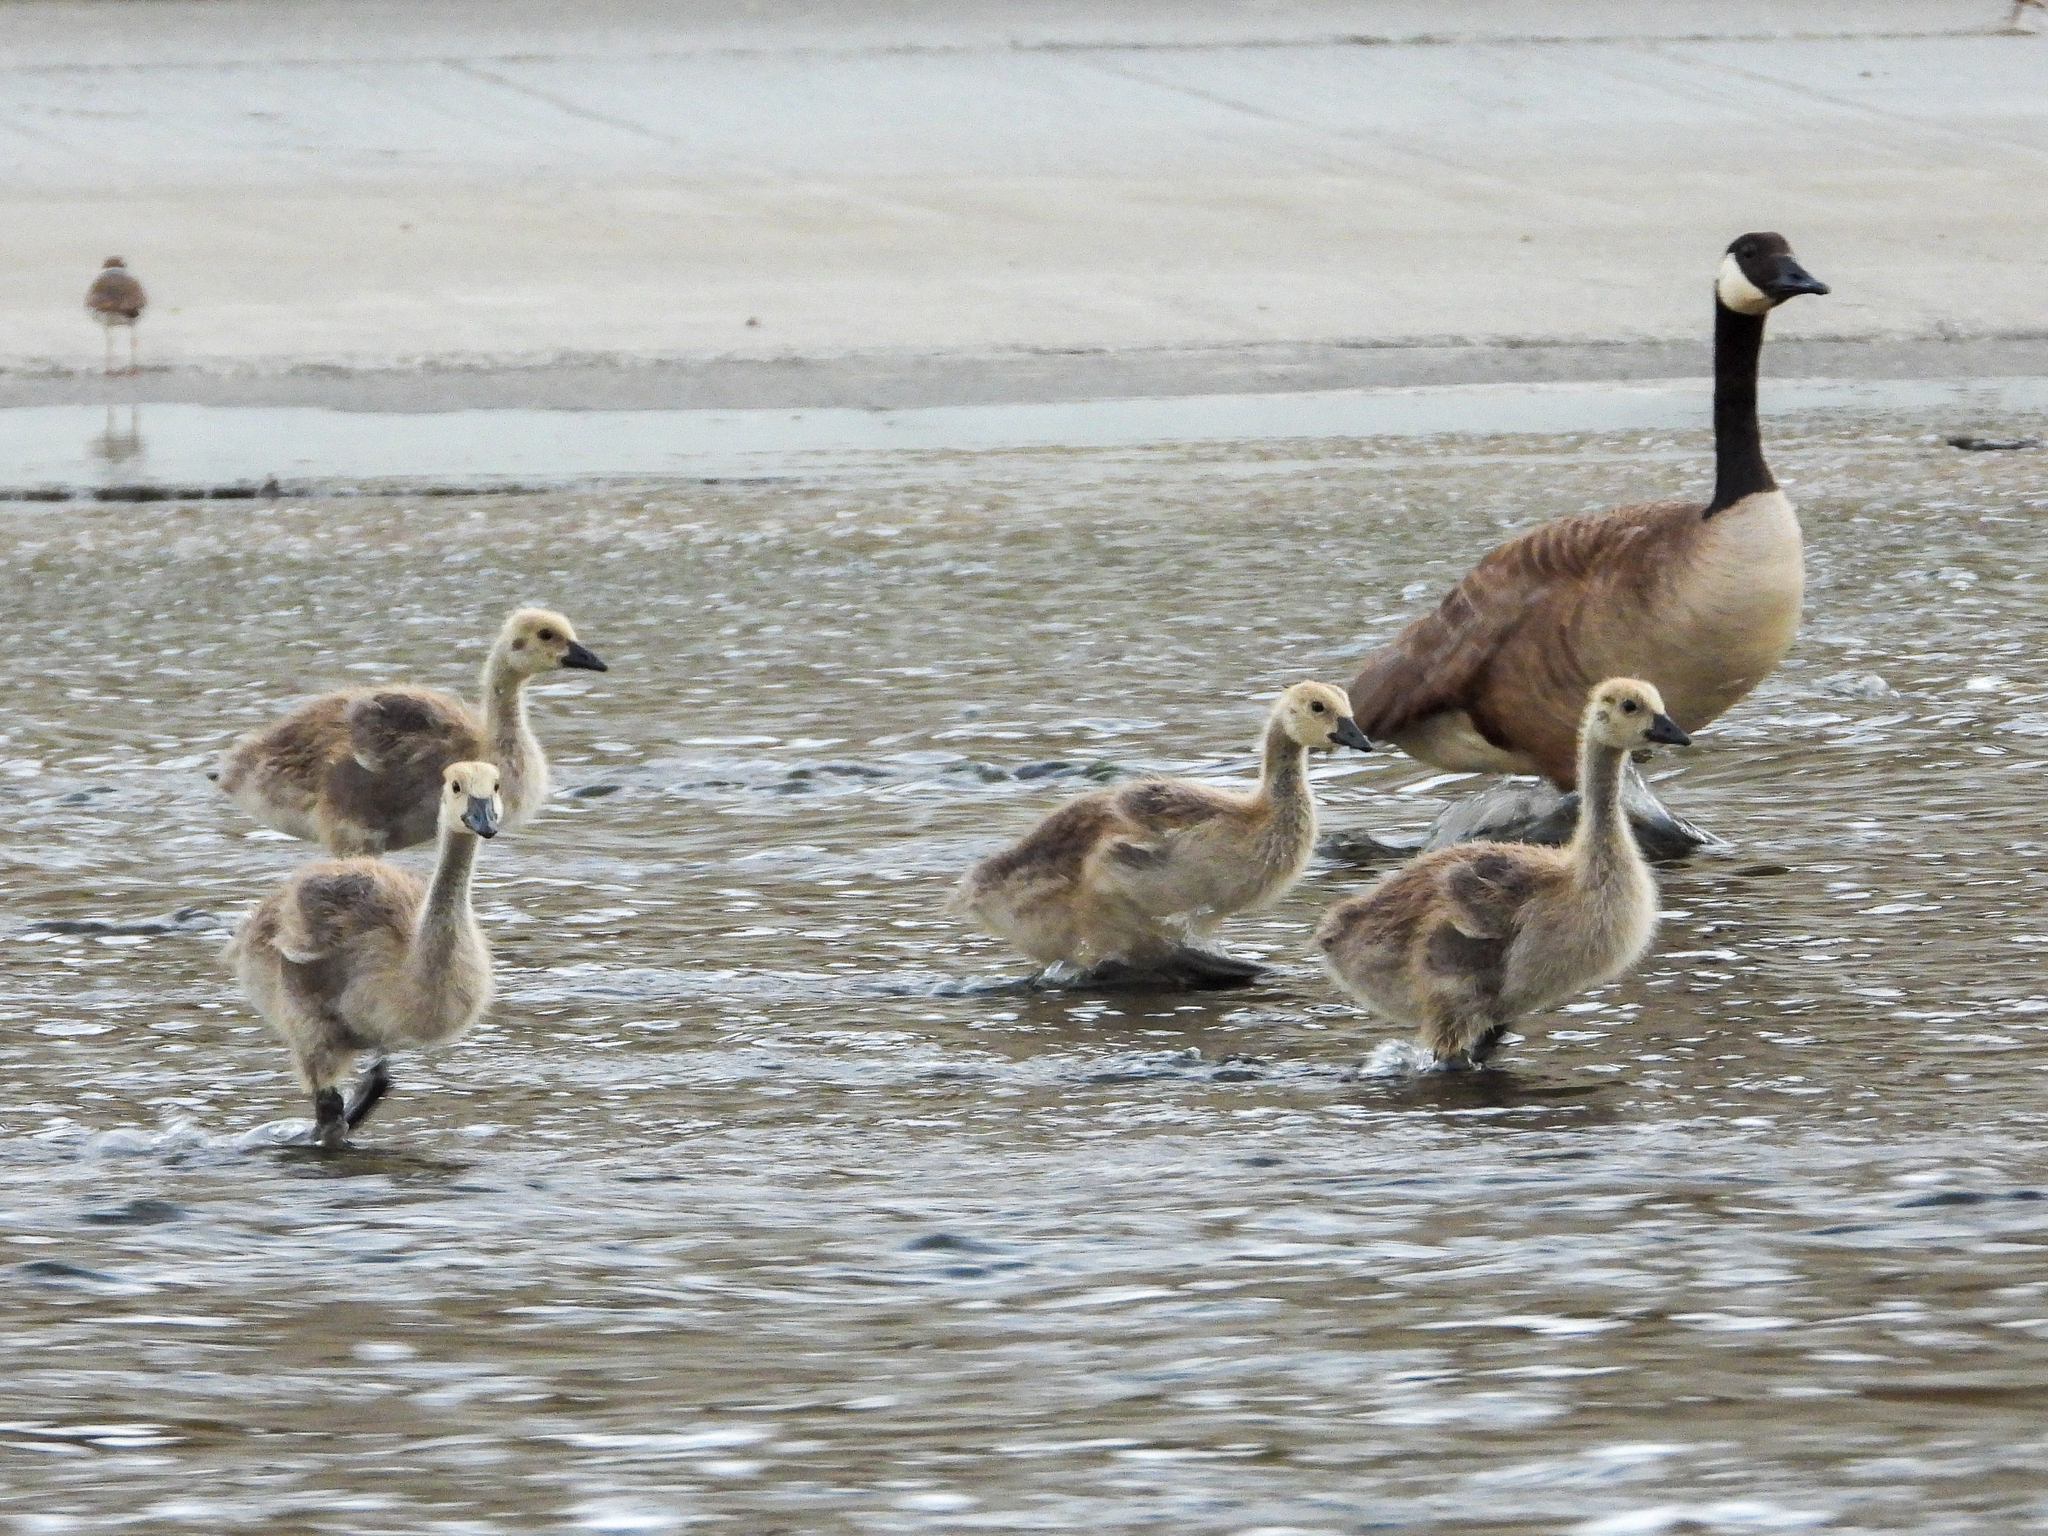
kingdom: Animalia
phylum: Chordata
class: Aves
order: Anseriformes
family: Anatidae
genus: Branta
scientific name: Branta canadensis
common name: Canada goose
